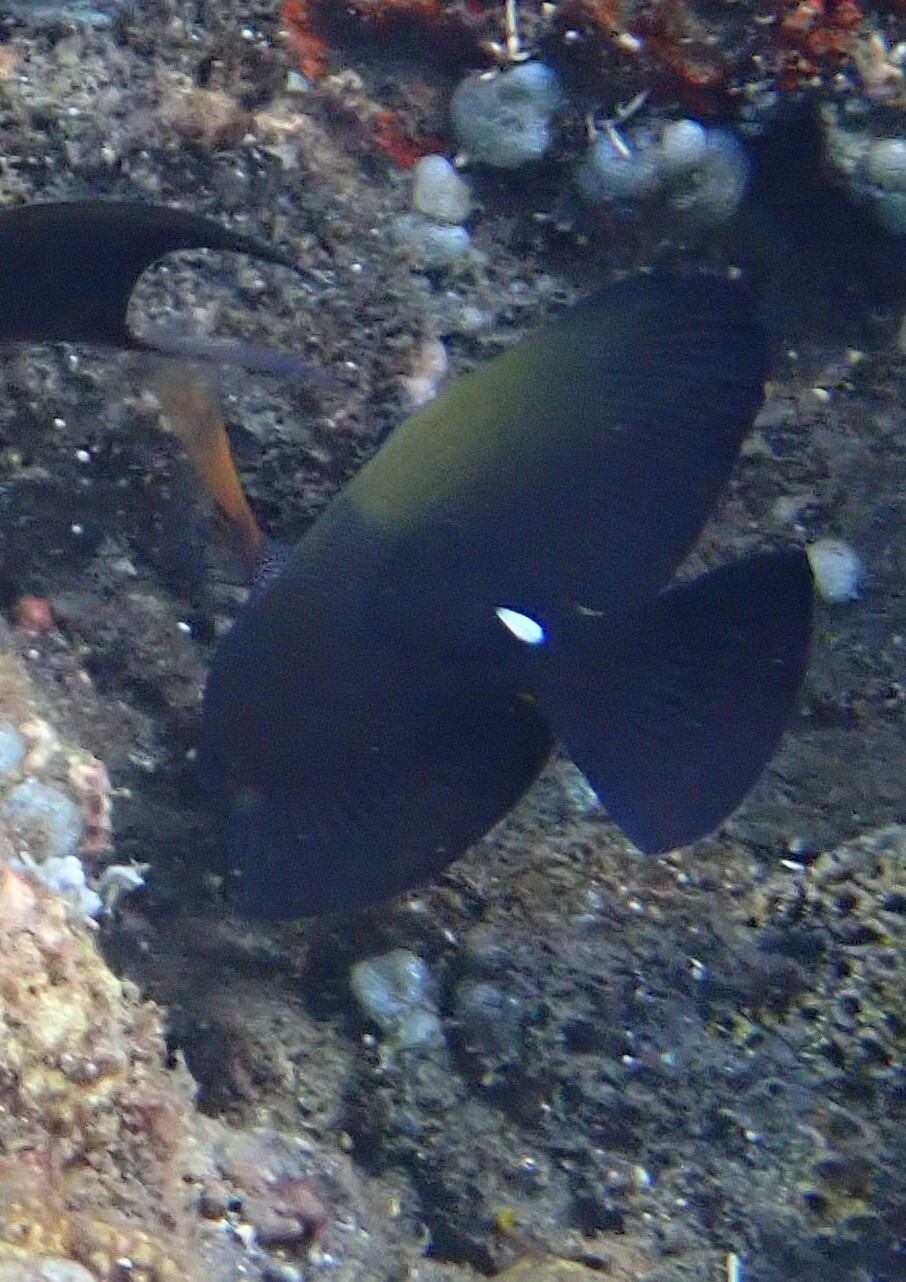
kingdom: Animalia
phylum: Chordata
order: Perciformes
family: Acanthuridae
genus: Zebrasoma
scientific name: Zebrasoma scopas
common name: Twotone tang
